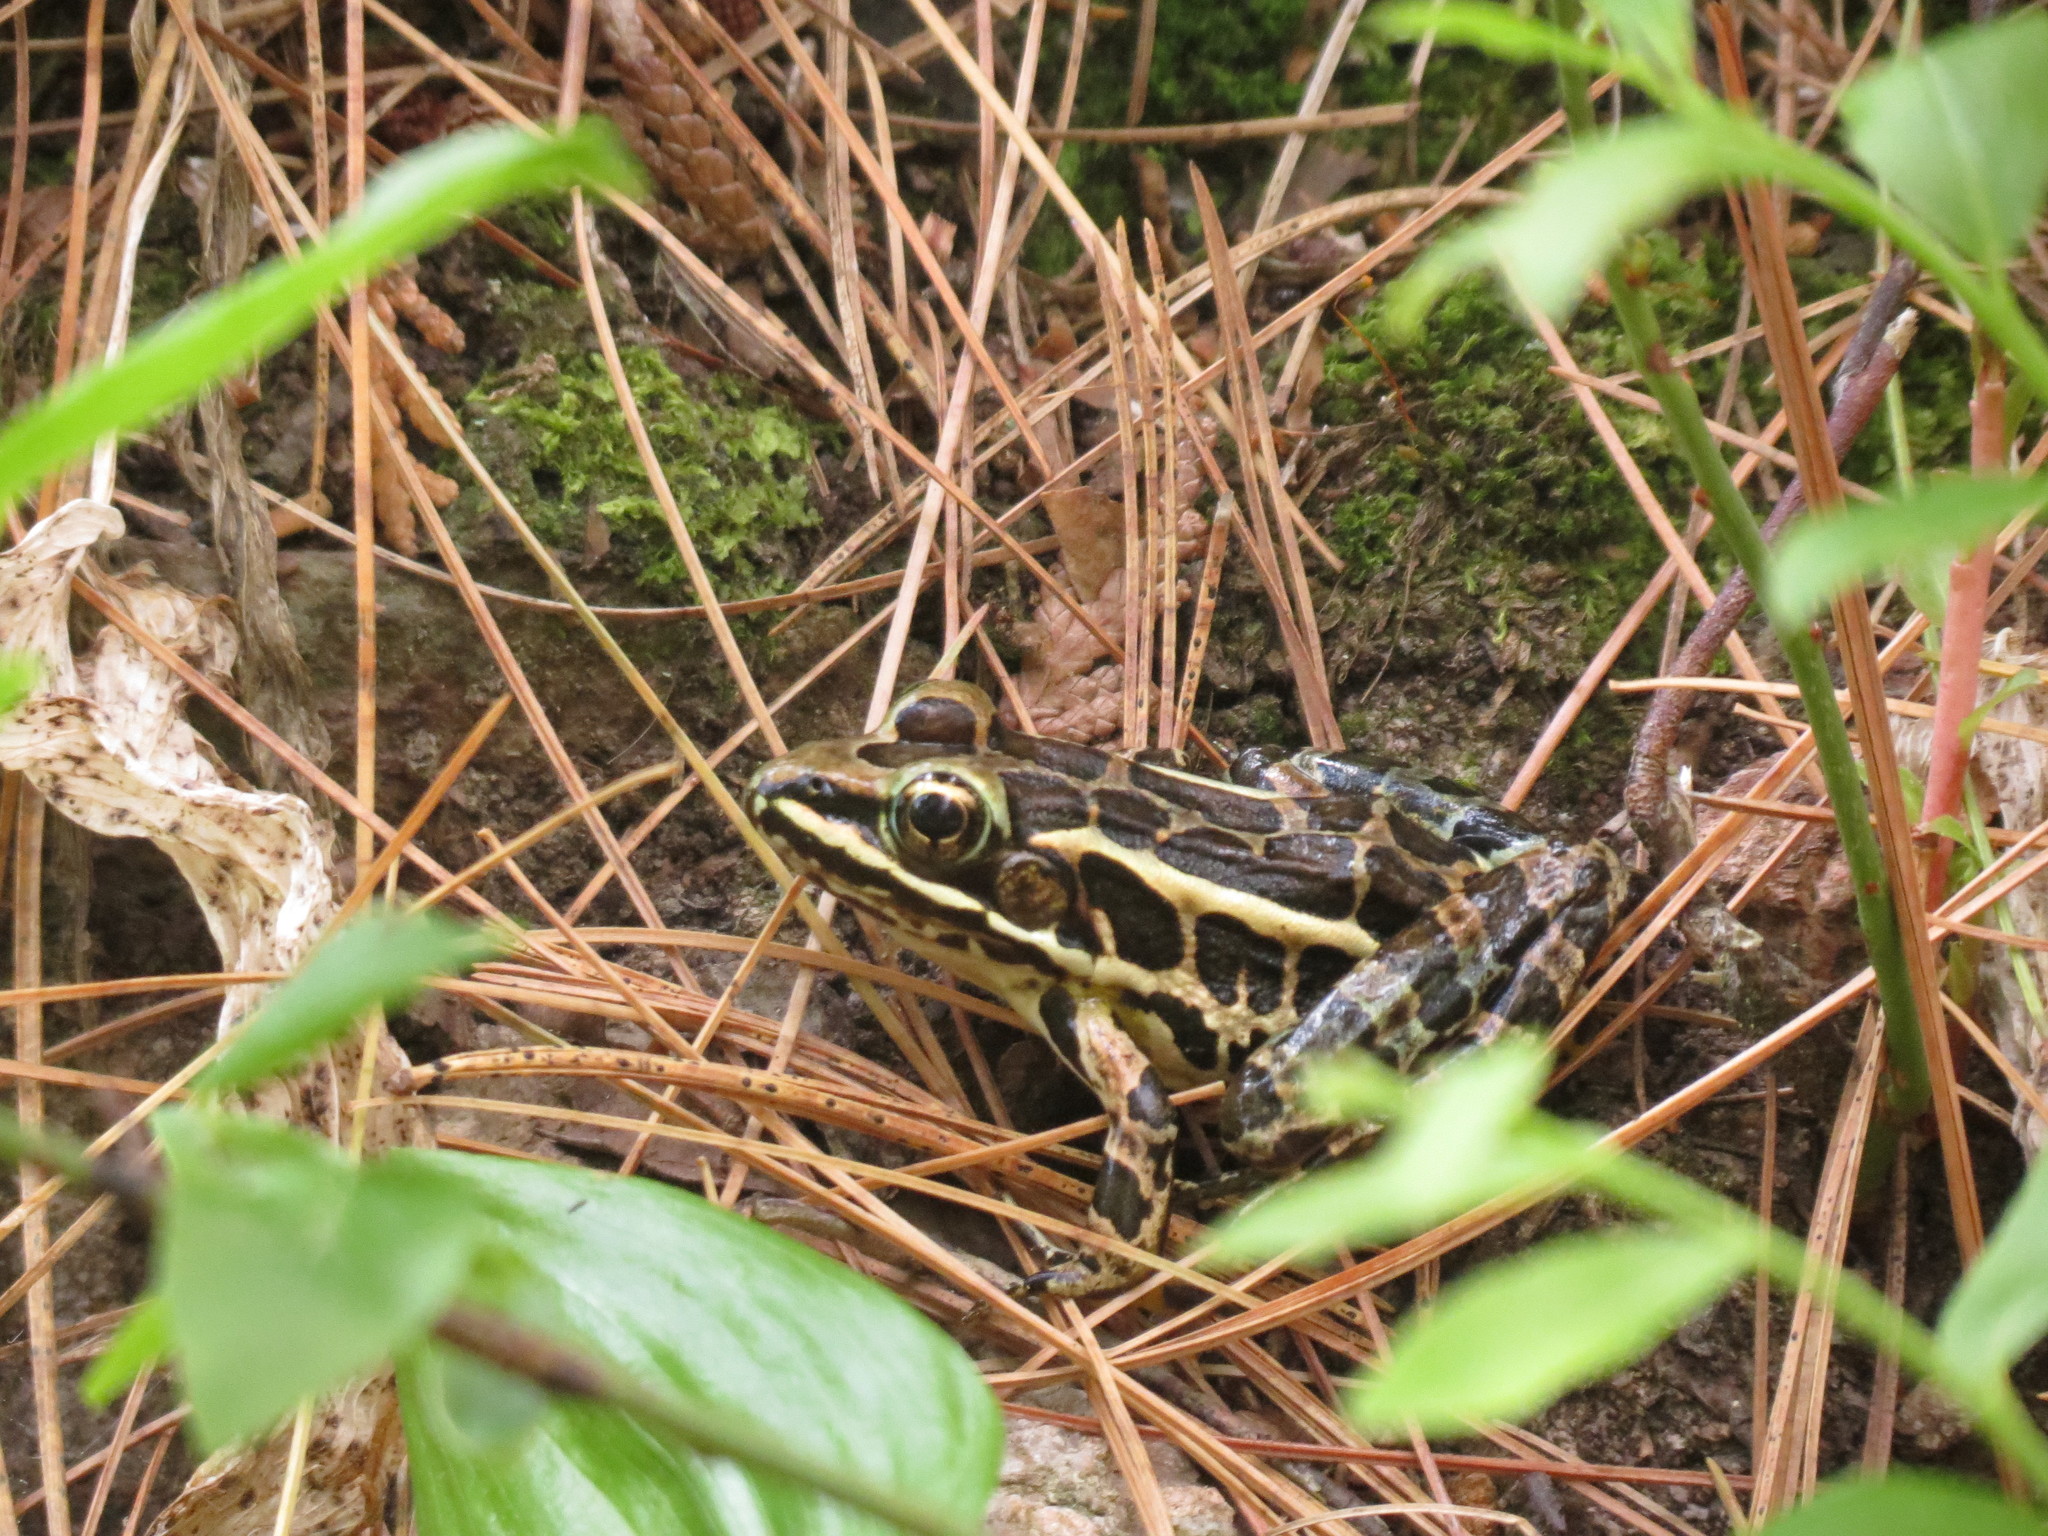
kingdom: Animalia
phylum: Chordata
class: Amphibia
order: Anura
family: Ranidae
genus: Lithobates
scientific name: Lithobates palustris
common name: Pickerel frog
